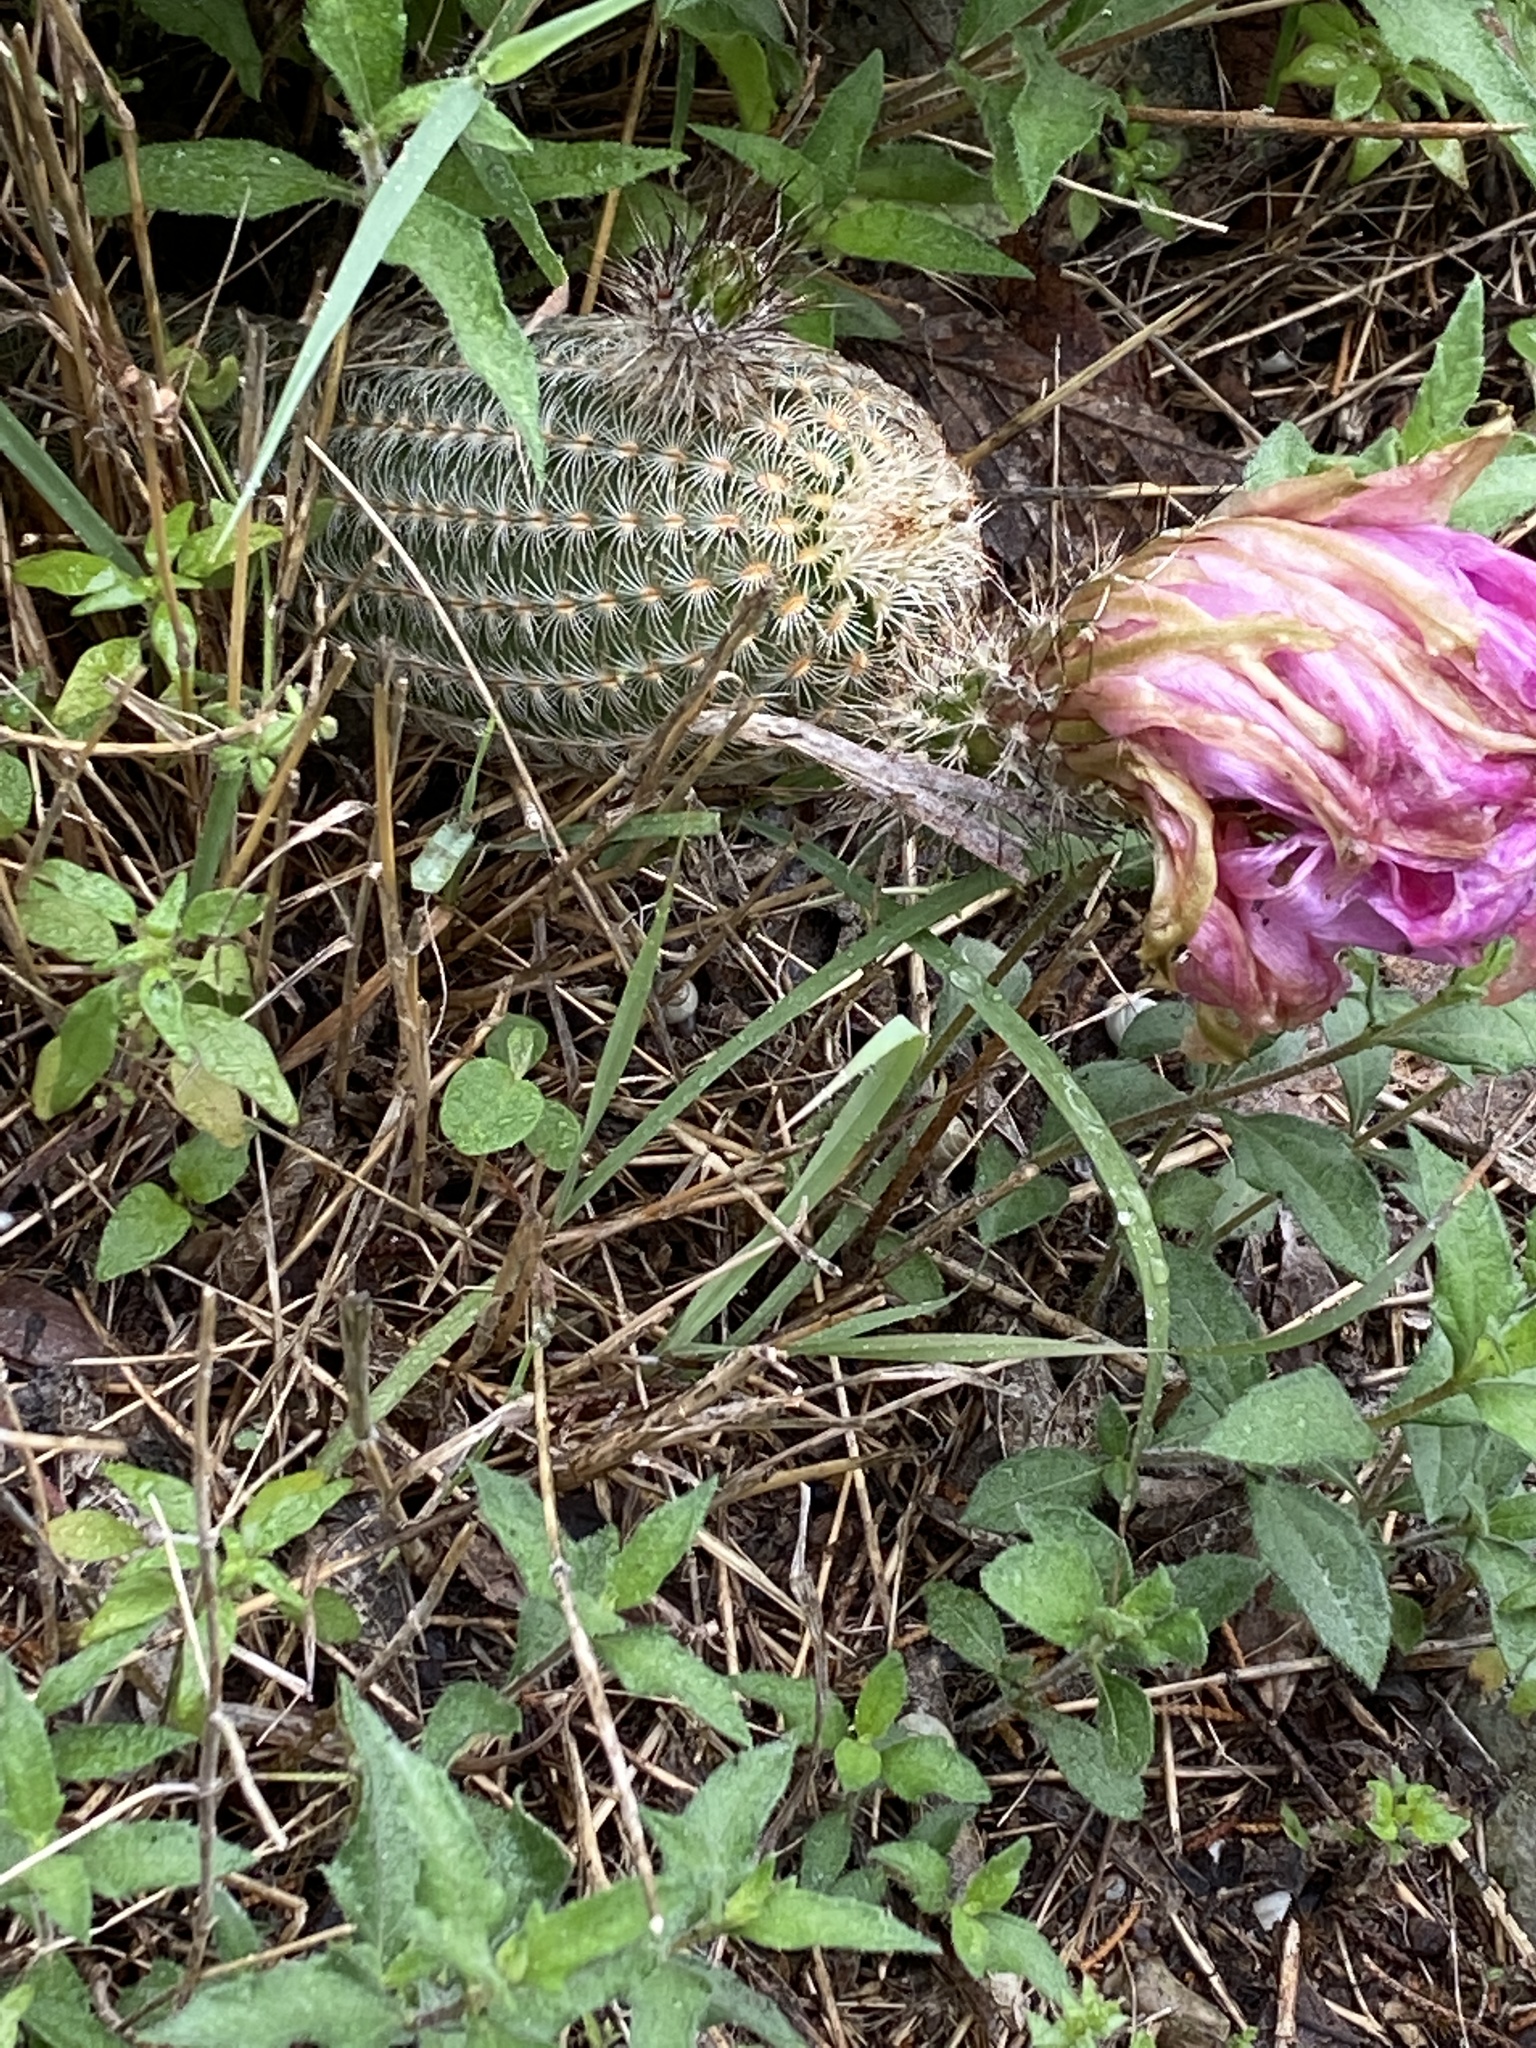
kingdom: Plantae
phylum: Tracheophyta
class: Magnoliopsida
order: Caryophyllales
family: Cactaceae
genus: Echinocereus
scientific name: Echinocereus reichenbachii
